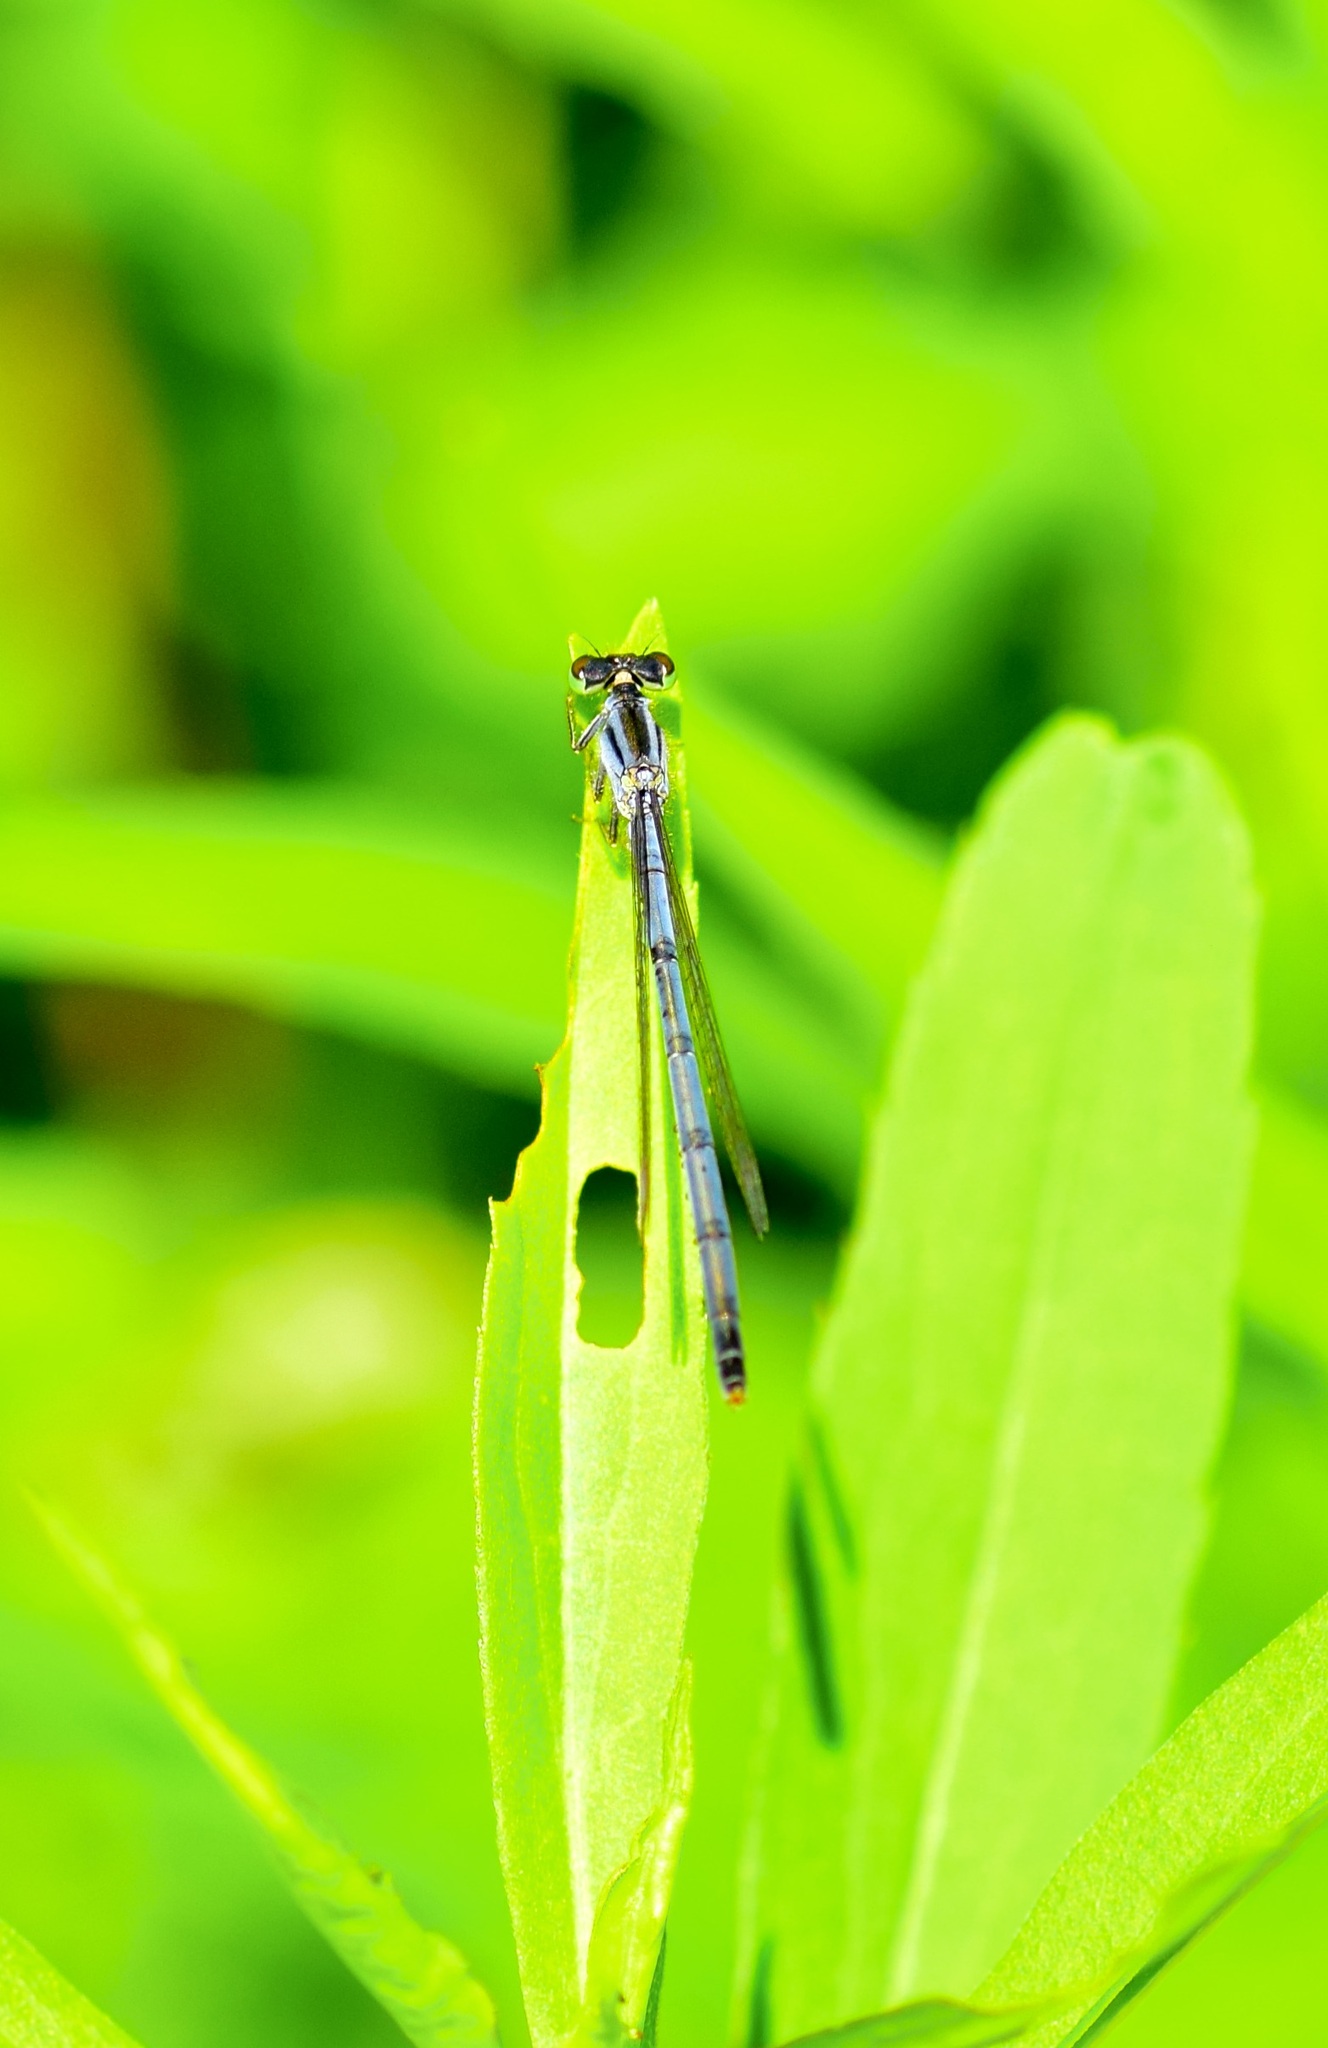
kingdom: Animalia
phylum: Arthropoda
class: Insecta
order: Odonata
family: Coenagrionidae
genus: Ischnura
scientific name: Ischnura verticalis
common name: Eastern forktail
